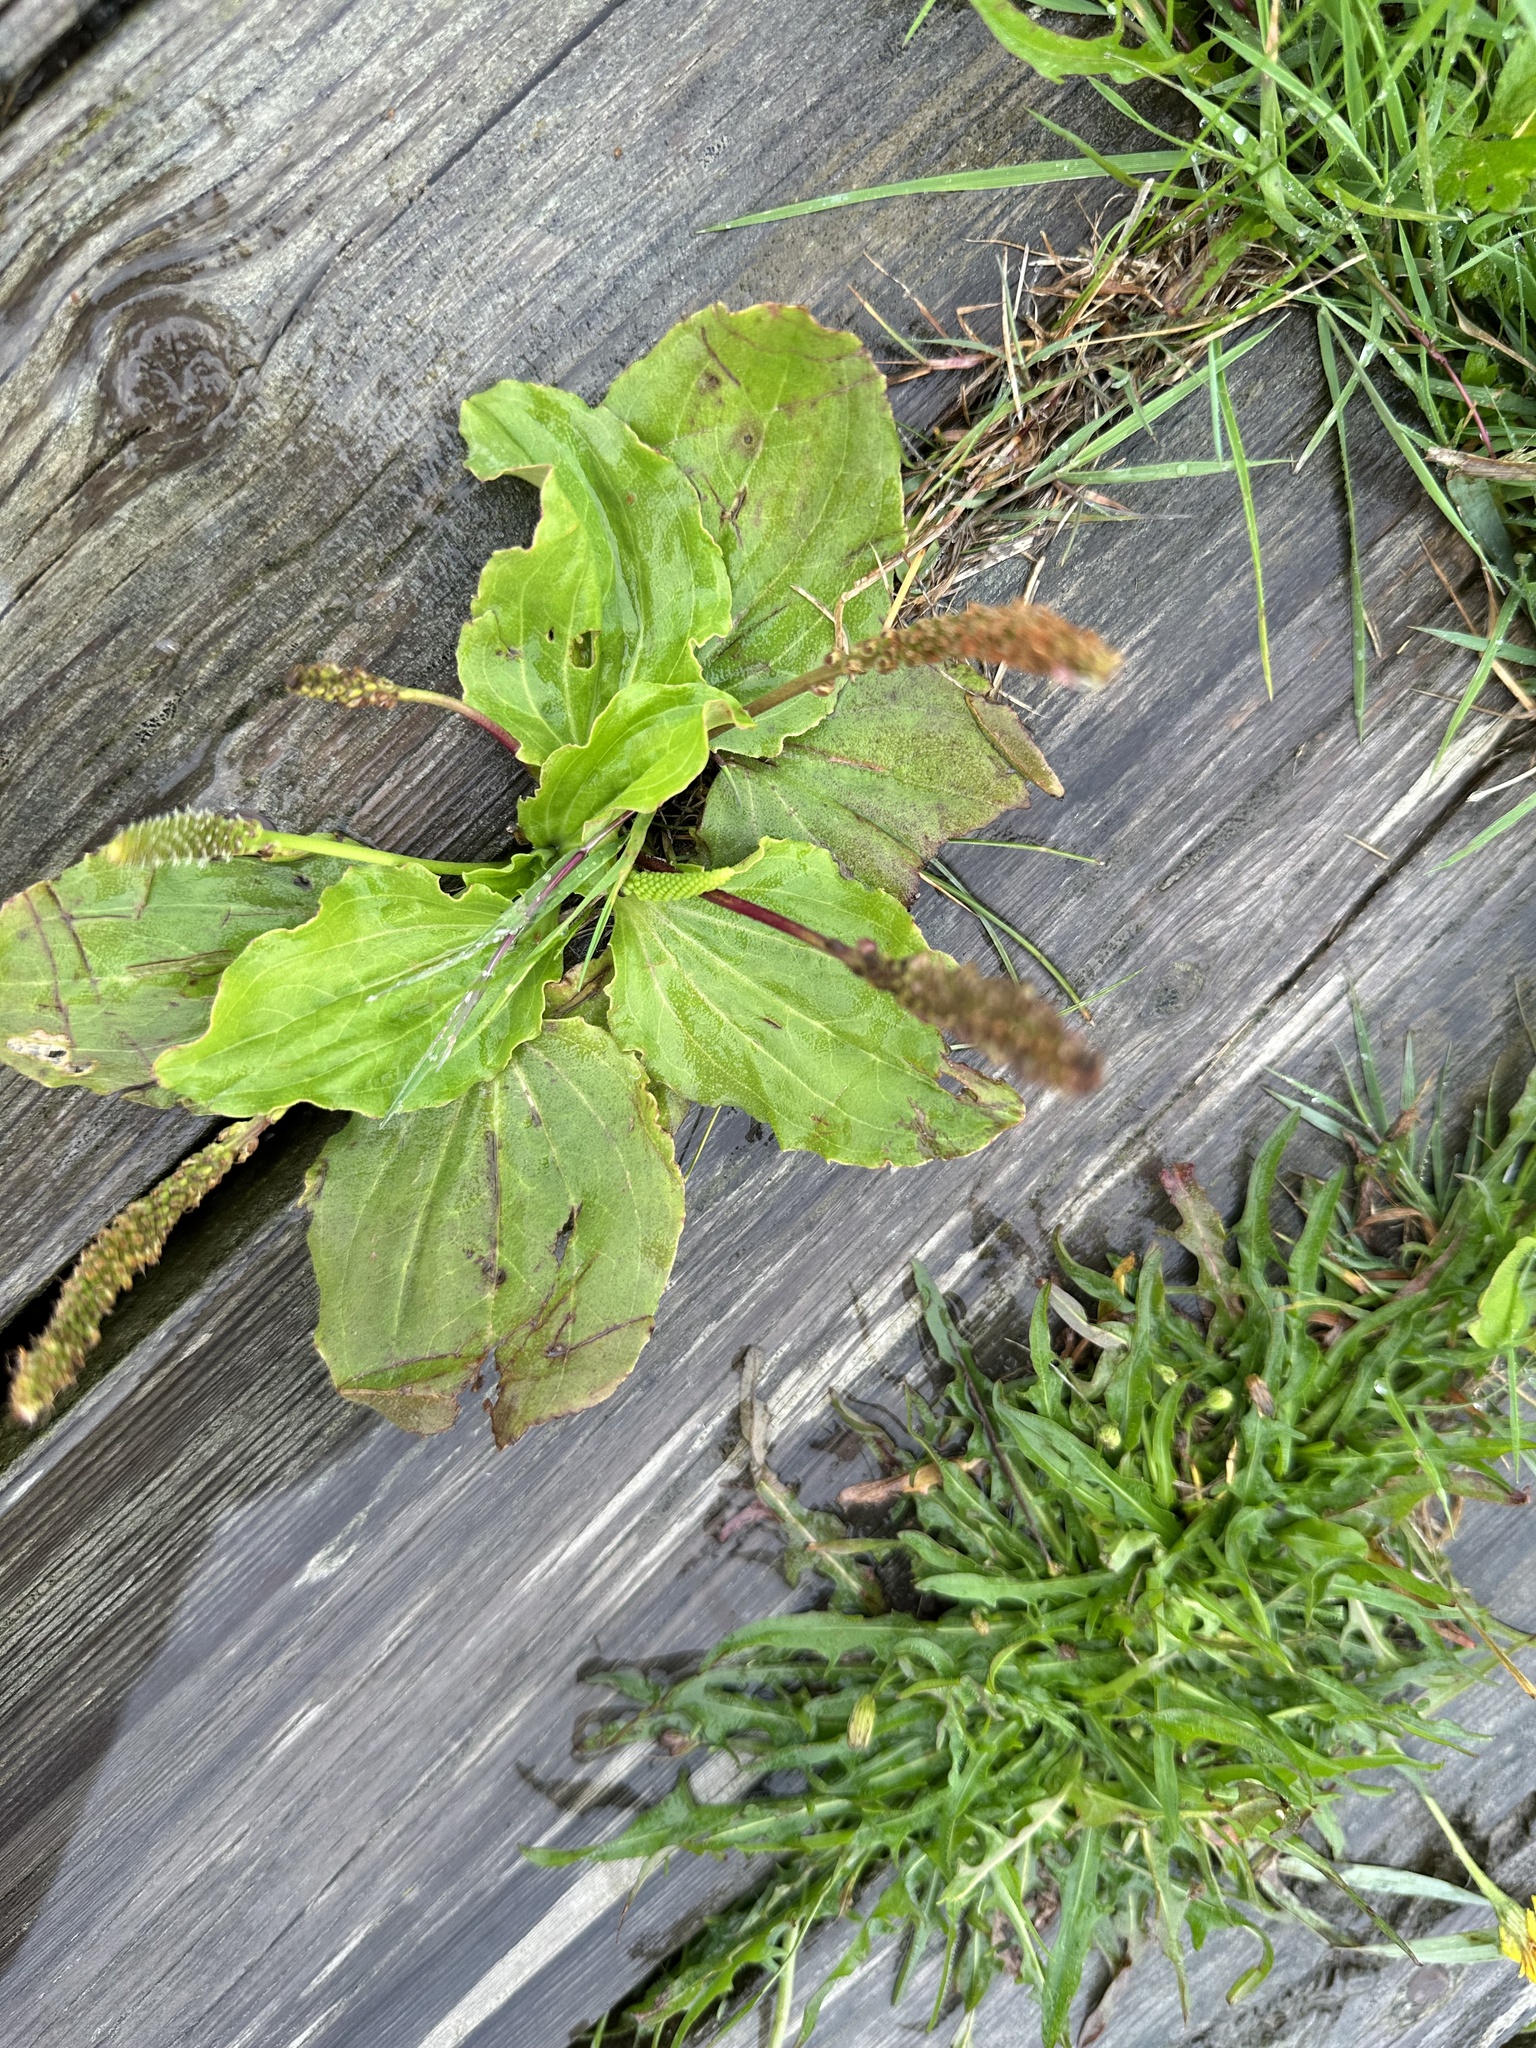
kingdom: Plantae
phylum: Tracheophyta
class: Magnoliopsida
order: Lamiales
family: Plantaginaceae
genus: Plantago
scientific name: Plantago major
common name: Common plantain
